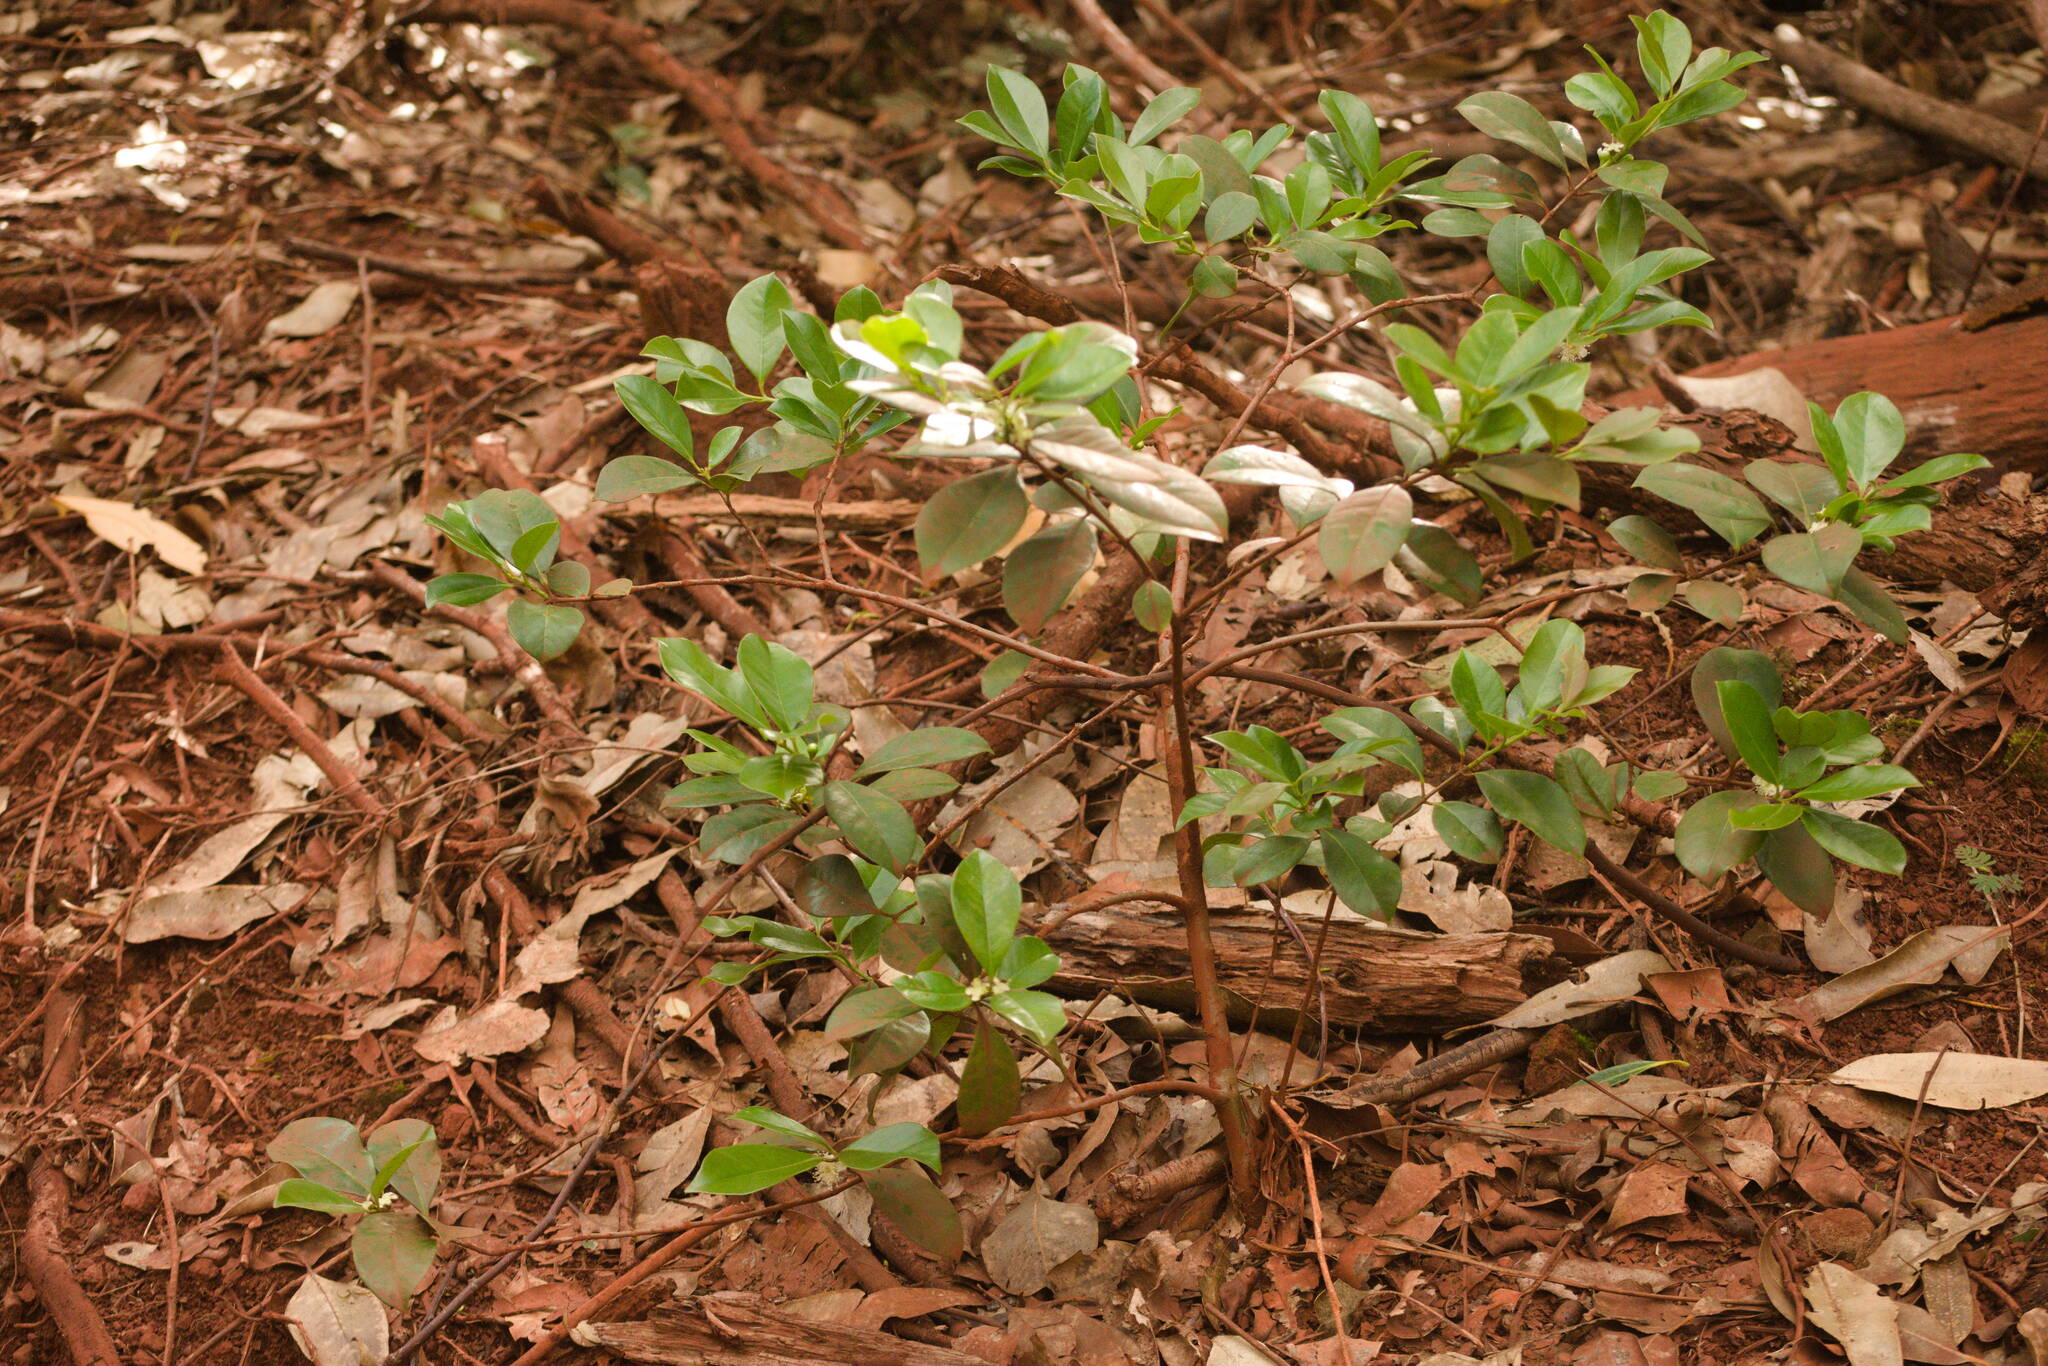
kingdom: Plantae
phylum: Tracheophyta
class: Magnoliopsida
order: Myrtales
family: Myrtaceae
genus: Psidium
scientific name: Psidium cattleianum
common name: Strawberry guava
